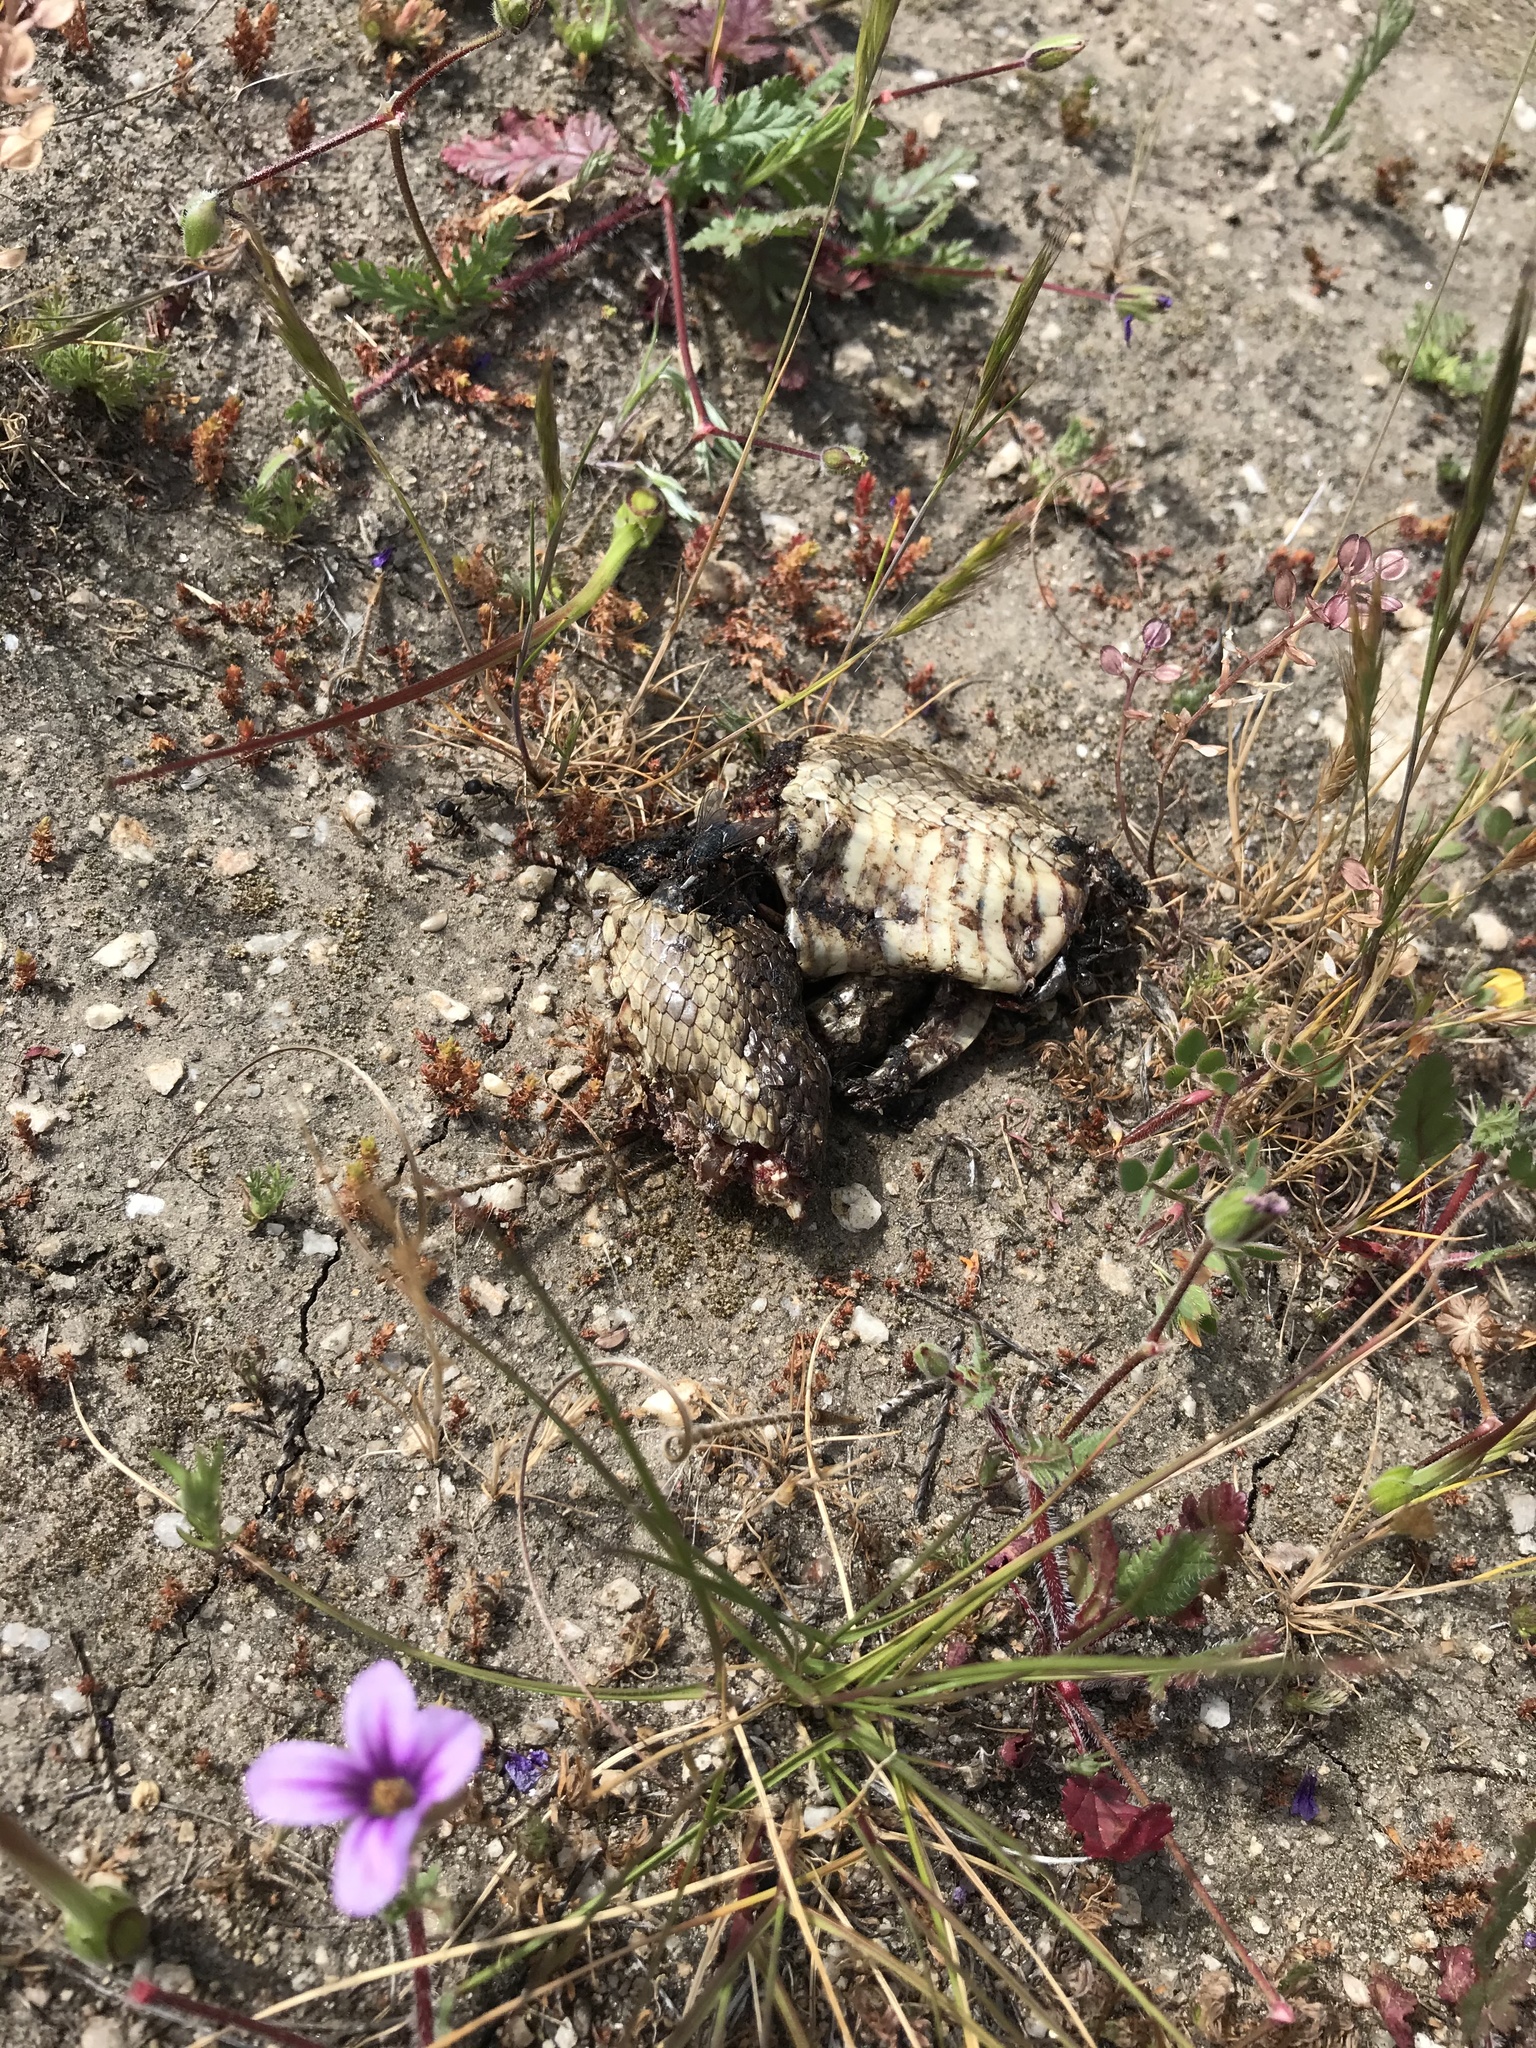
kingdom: Animalia
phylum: Chordata
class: Squamata
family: Colubridae
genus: Pituophis
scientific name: Pituophis catenifer
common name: Gopher snake
